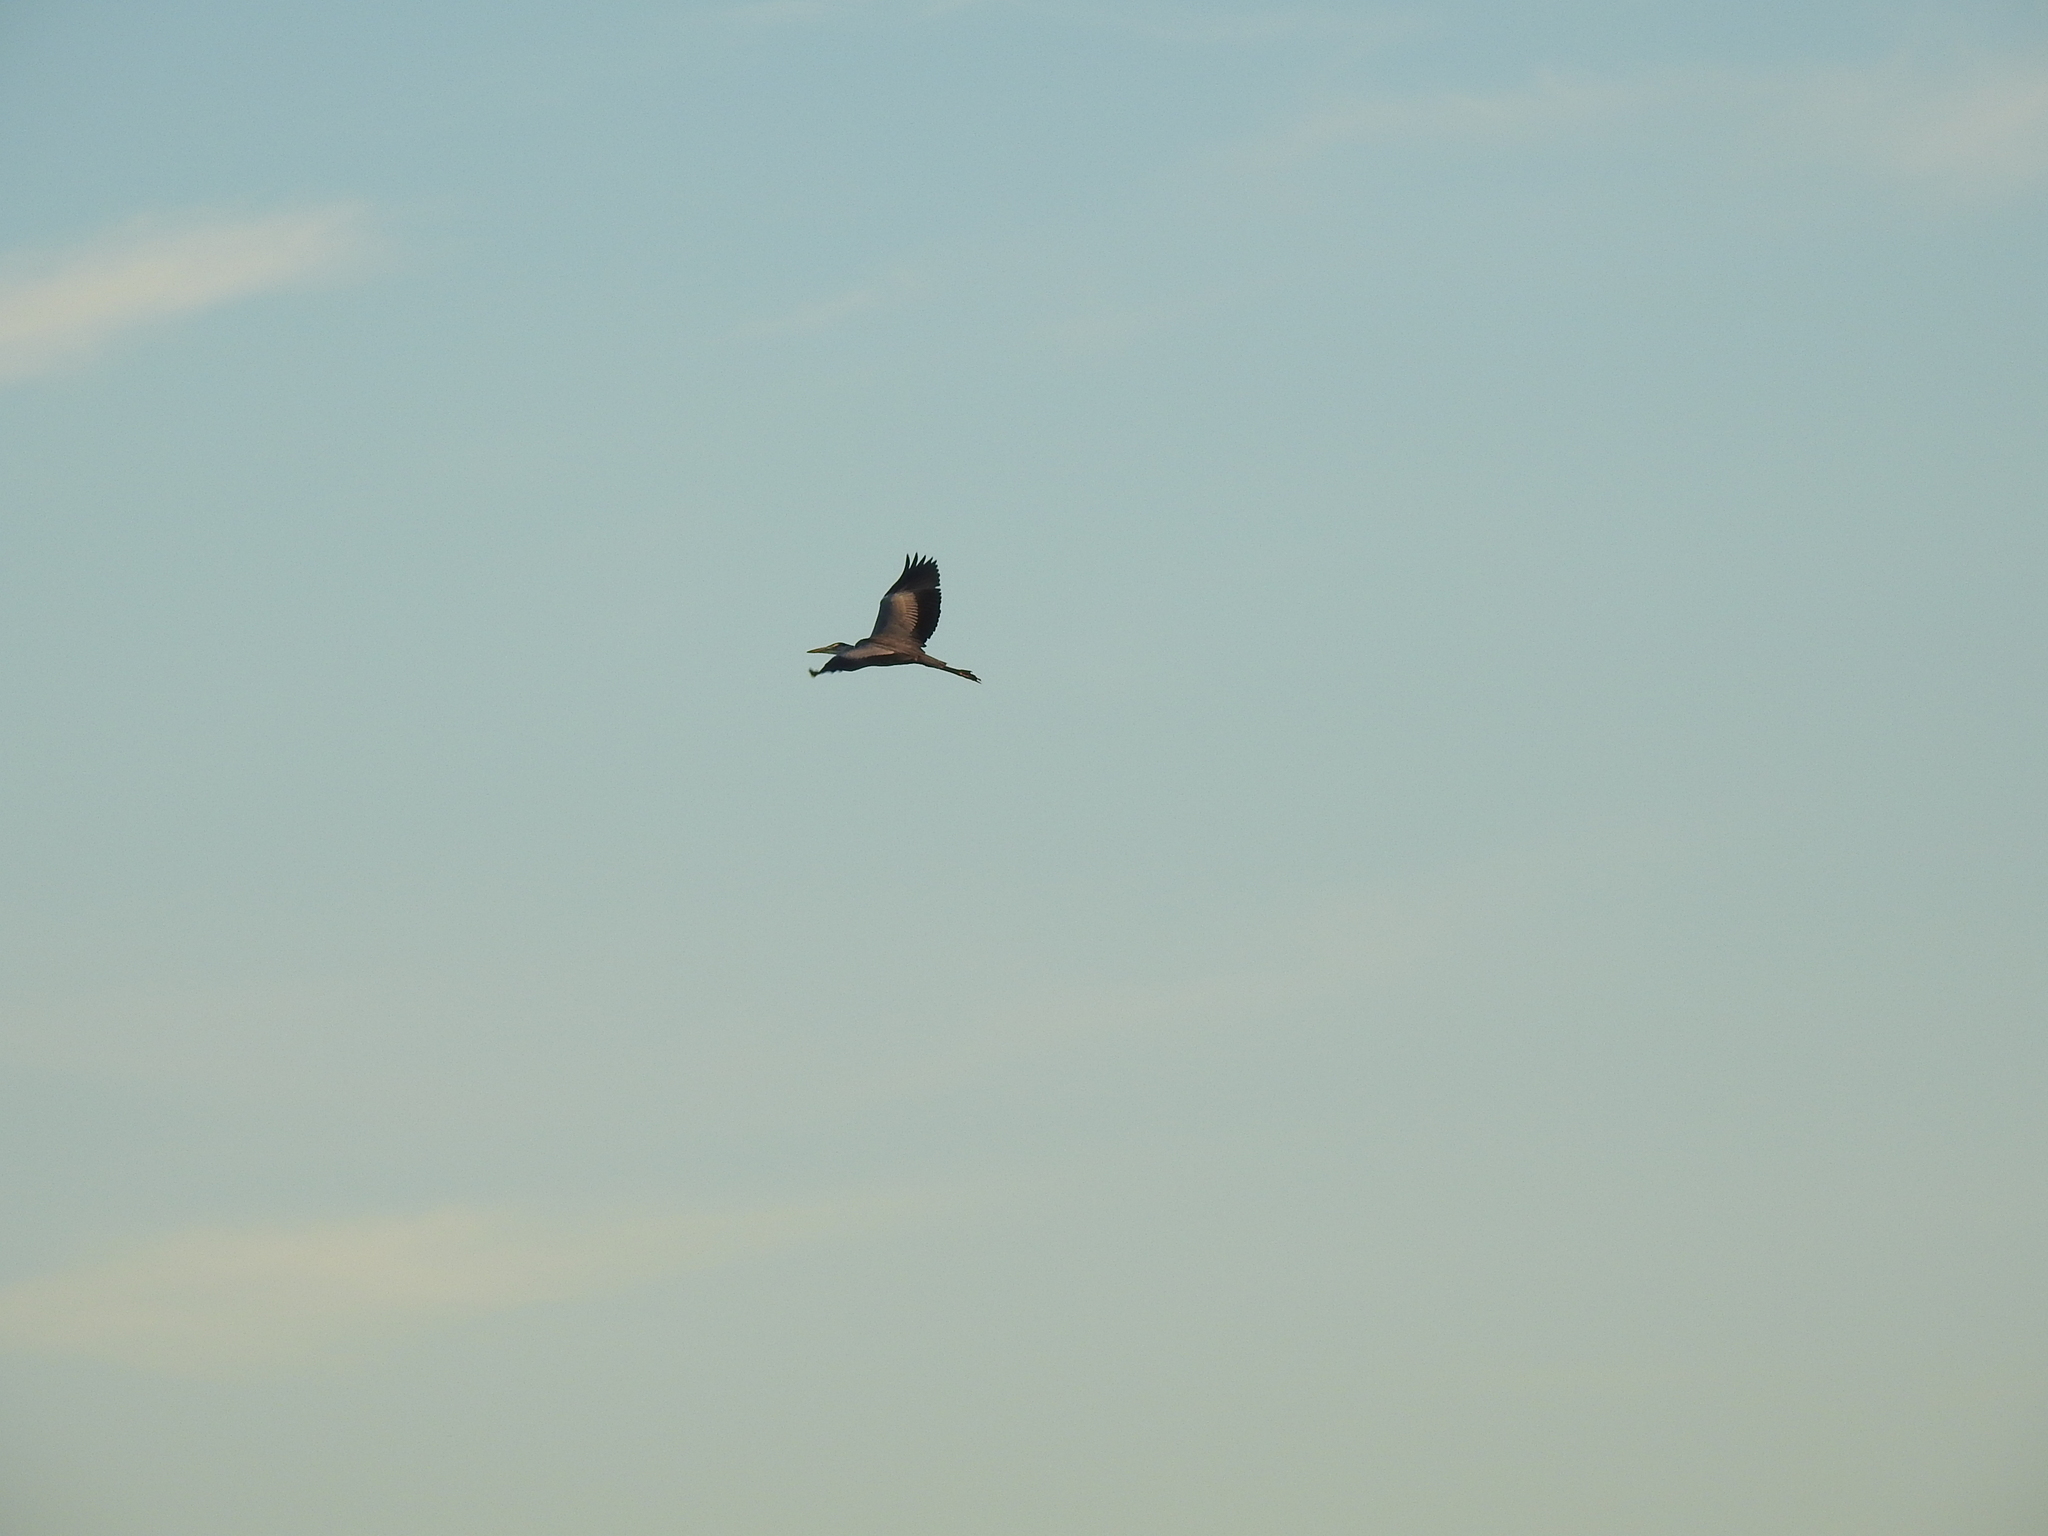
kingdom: Animalia
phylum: Chordata
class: Aves
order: Pelecaniformes
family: Ardeidae
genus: Ardea
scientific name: Ardea cinerea
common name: Grey heron
